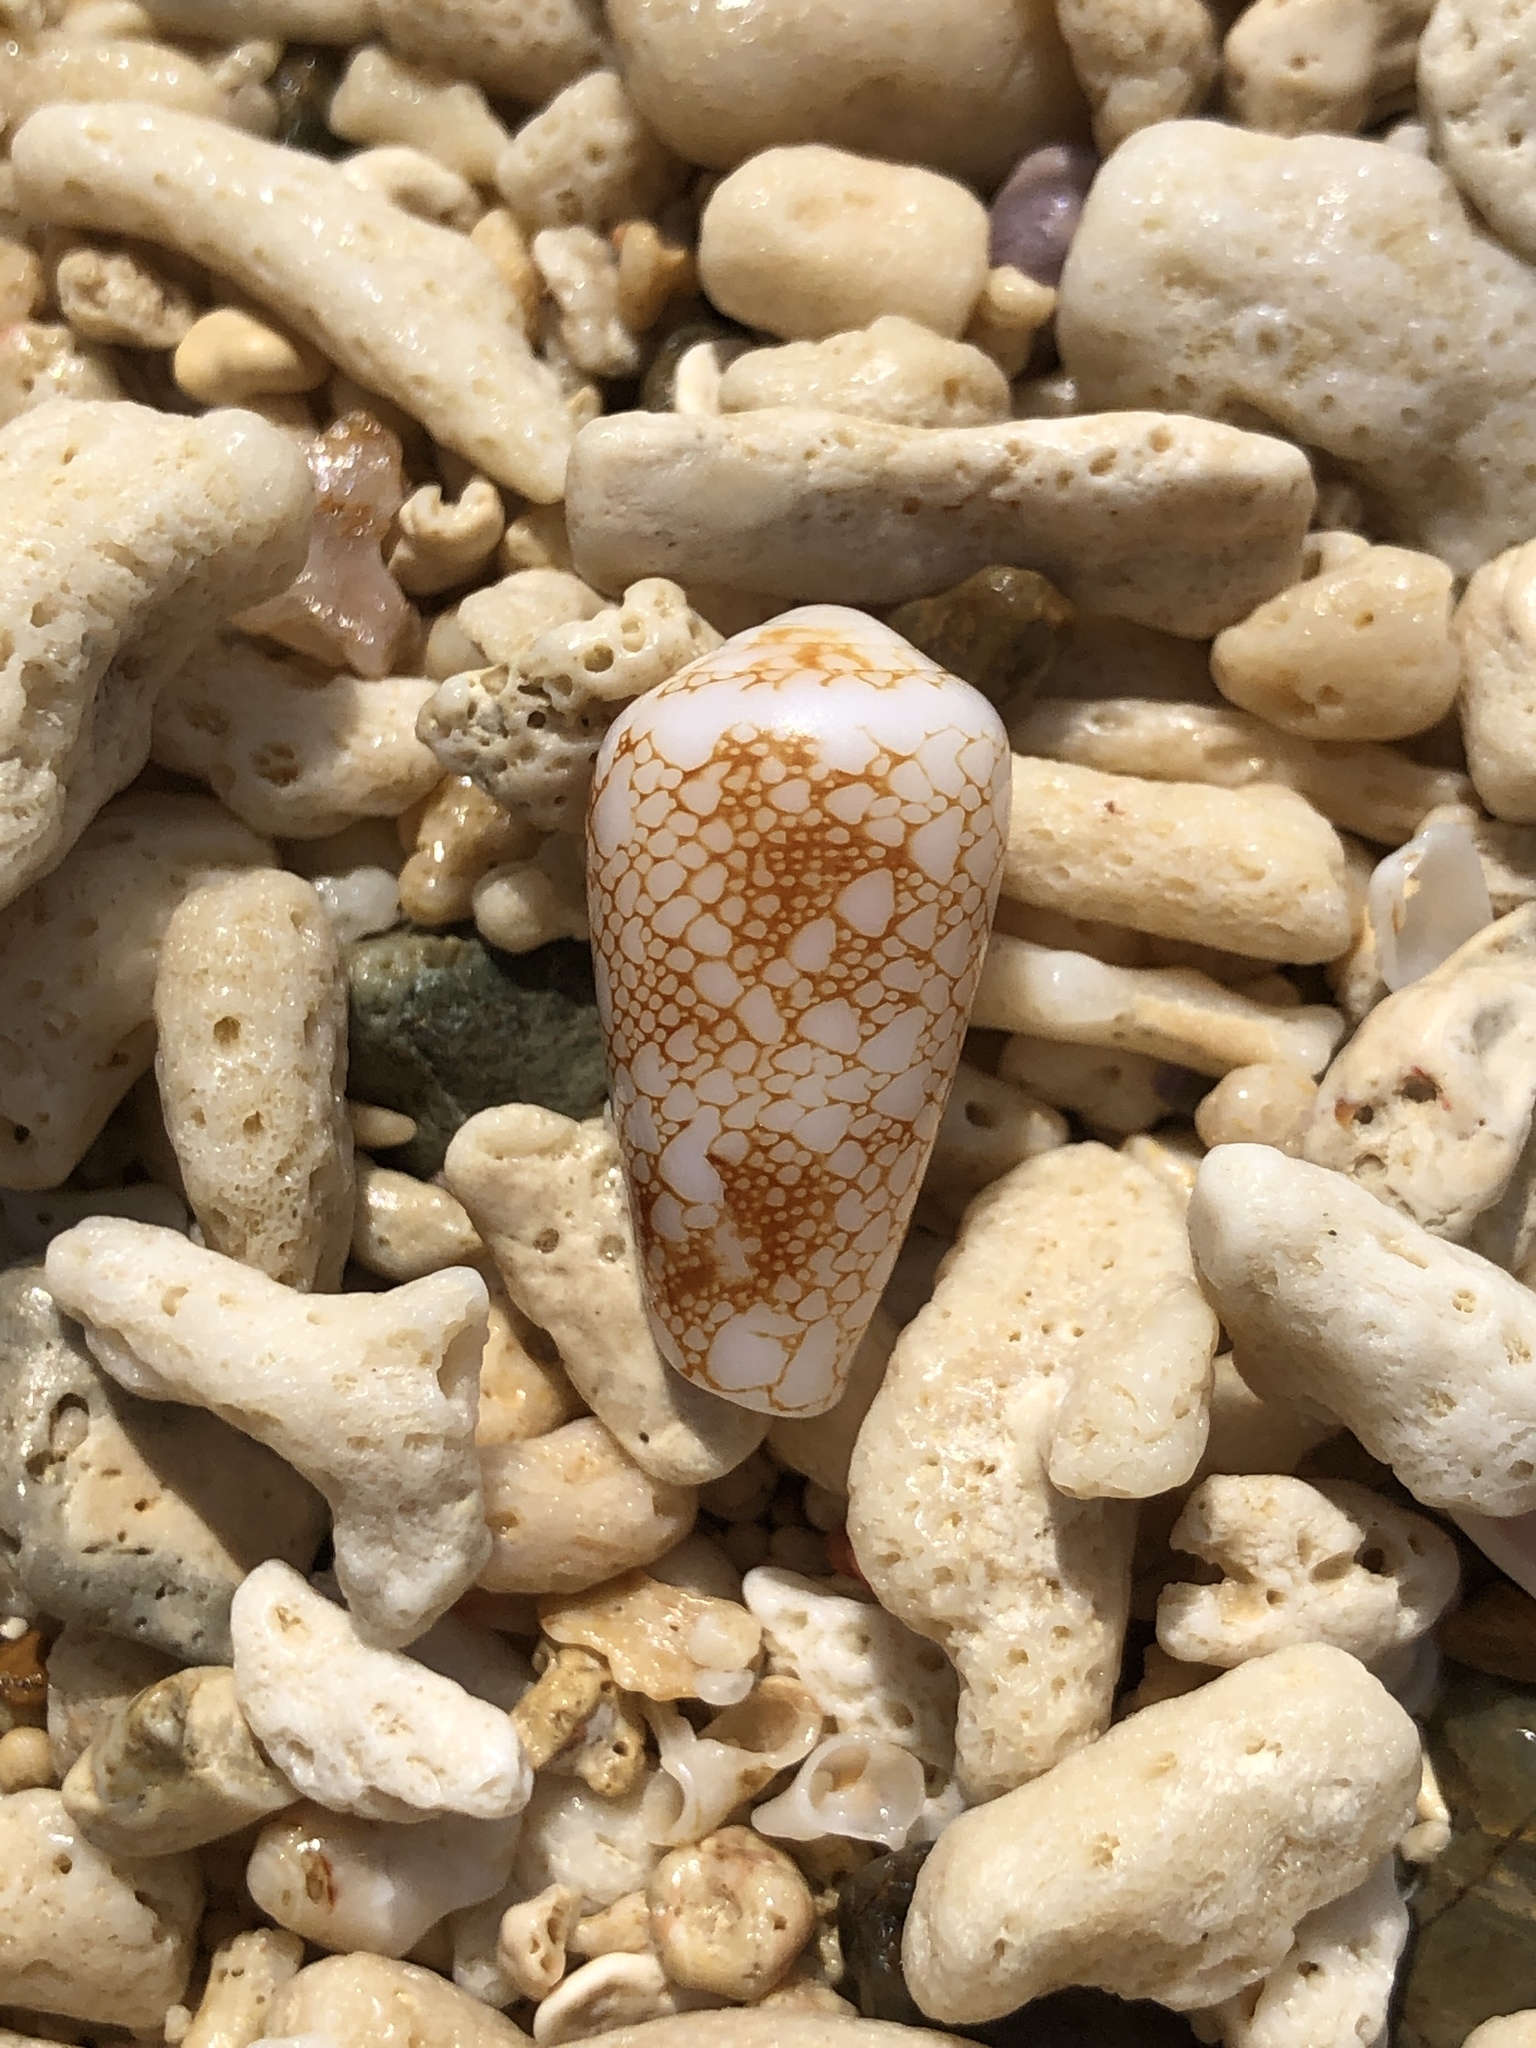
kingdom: Animalia
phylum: Mollusca
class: Gastropoda
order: Neogastropoda
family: Conidae
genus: Conus
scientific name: Conus omaria
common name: Omaria cone
